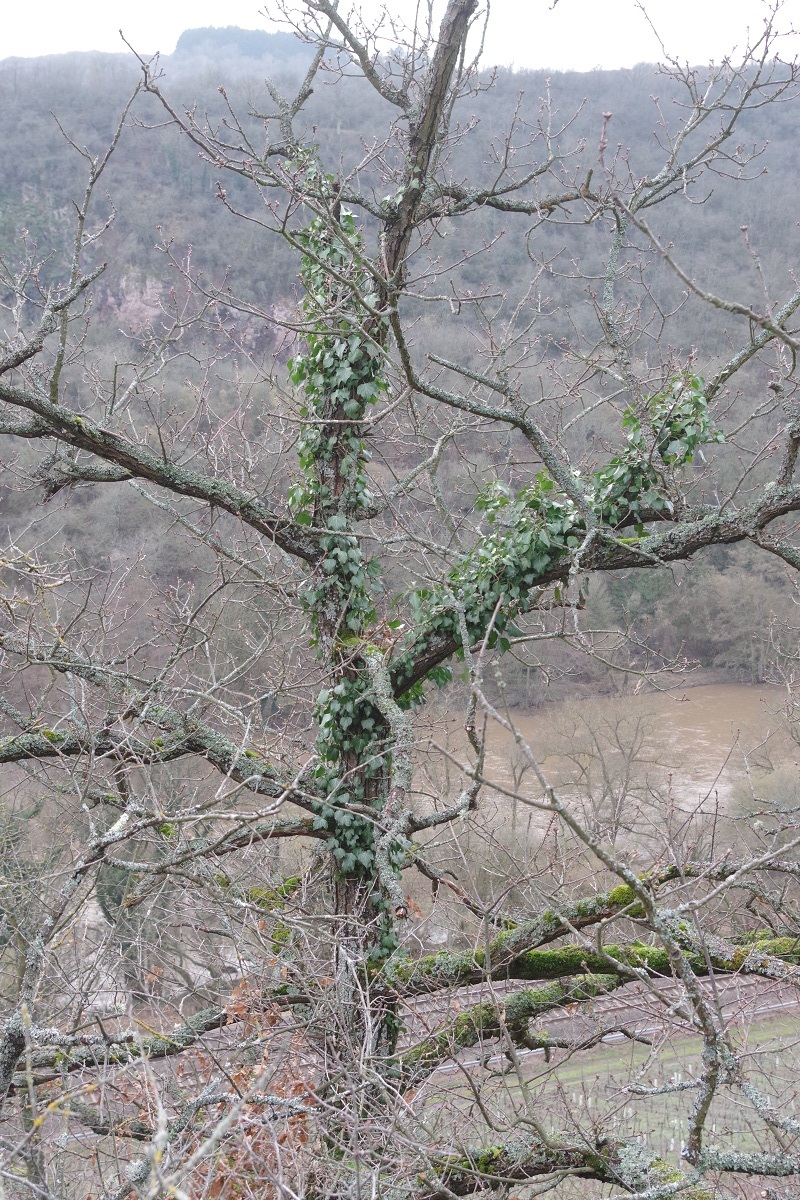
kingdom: Plantae
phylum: Tracheophyta
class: Magnoliopsida
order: Apiales
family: Araliaceae
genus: Hedera
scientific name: Hedera helix
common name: Ivy
